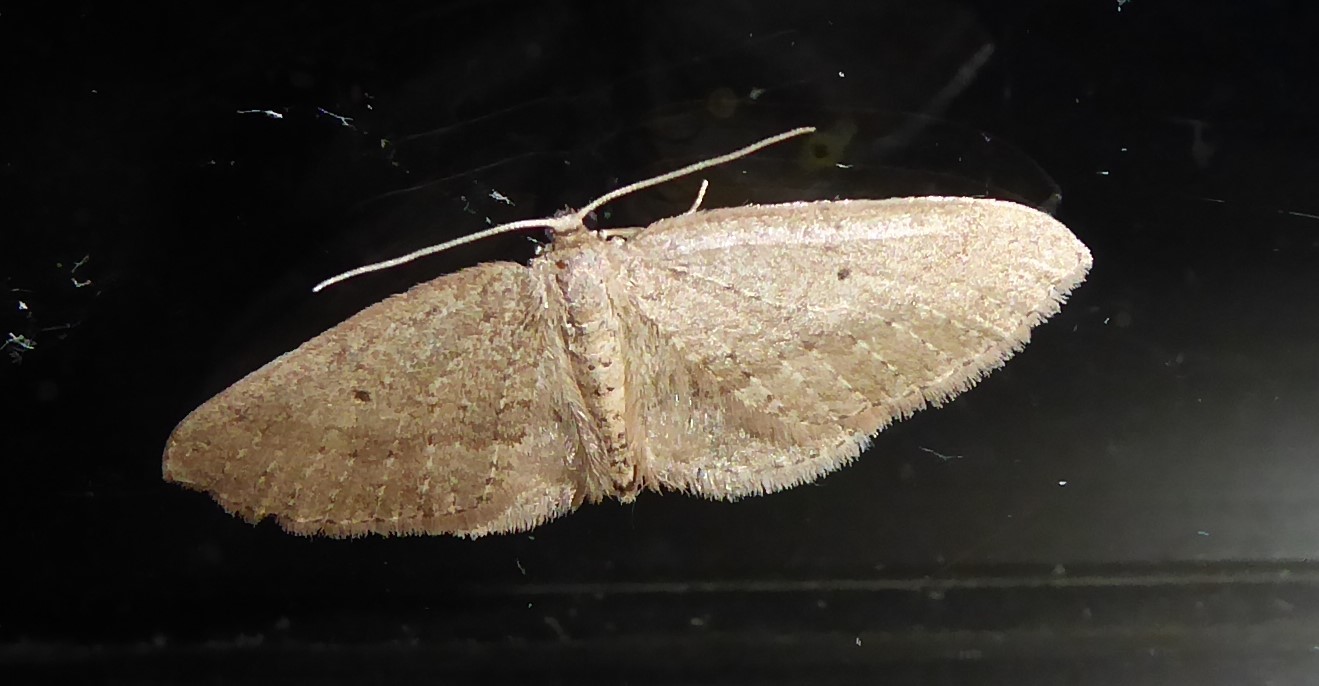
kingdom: Animalia
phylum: Arthropoda
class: Insecta
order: Lepidoptera
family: Geometridae
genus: Poecilasthena
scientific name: Poecilasthena schistaria
